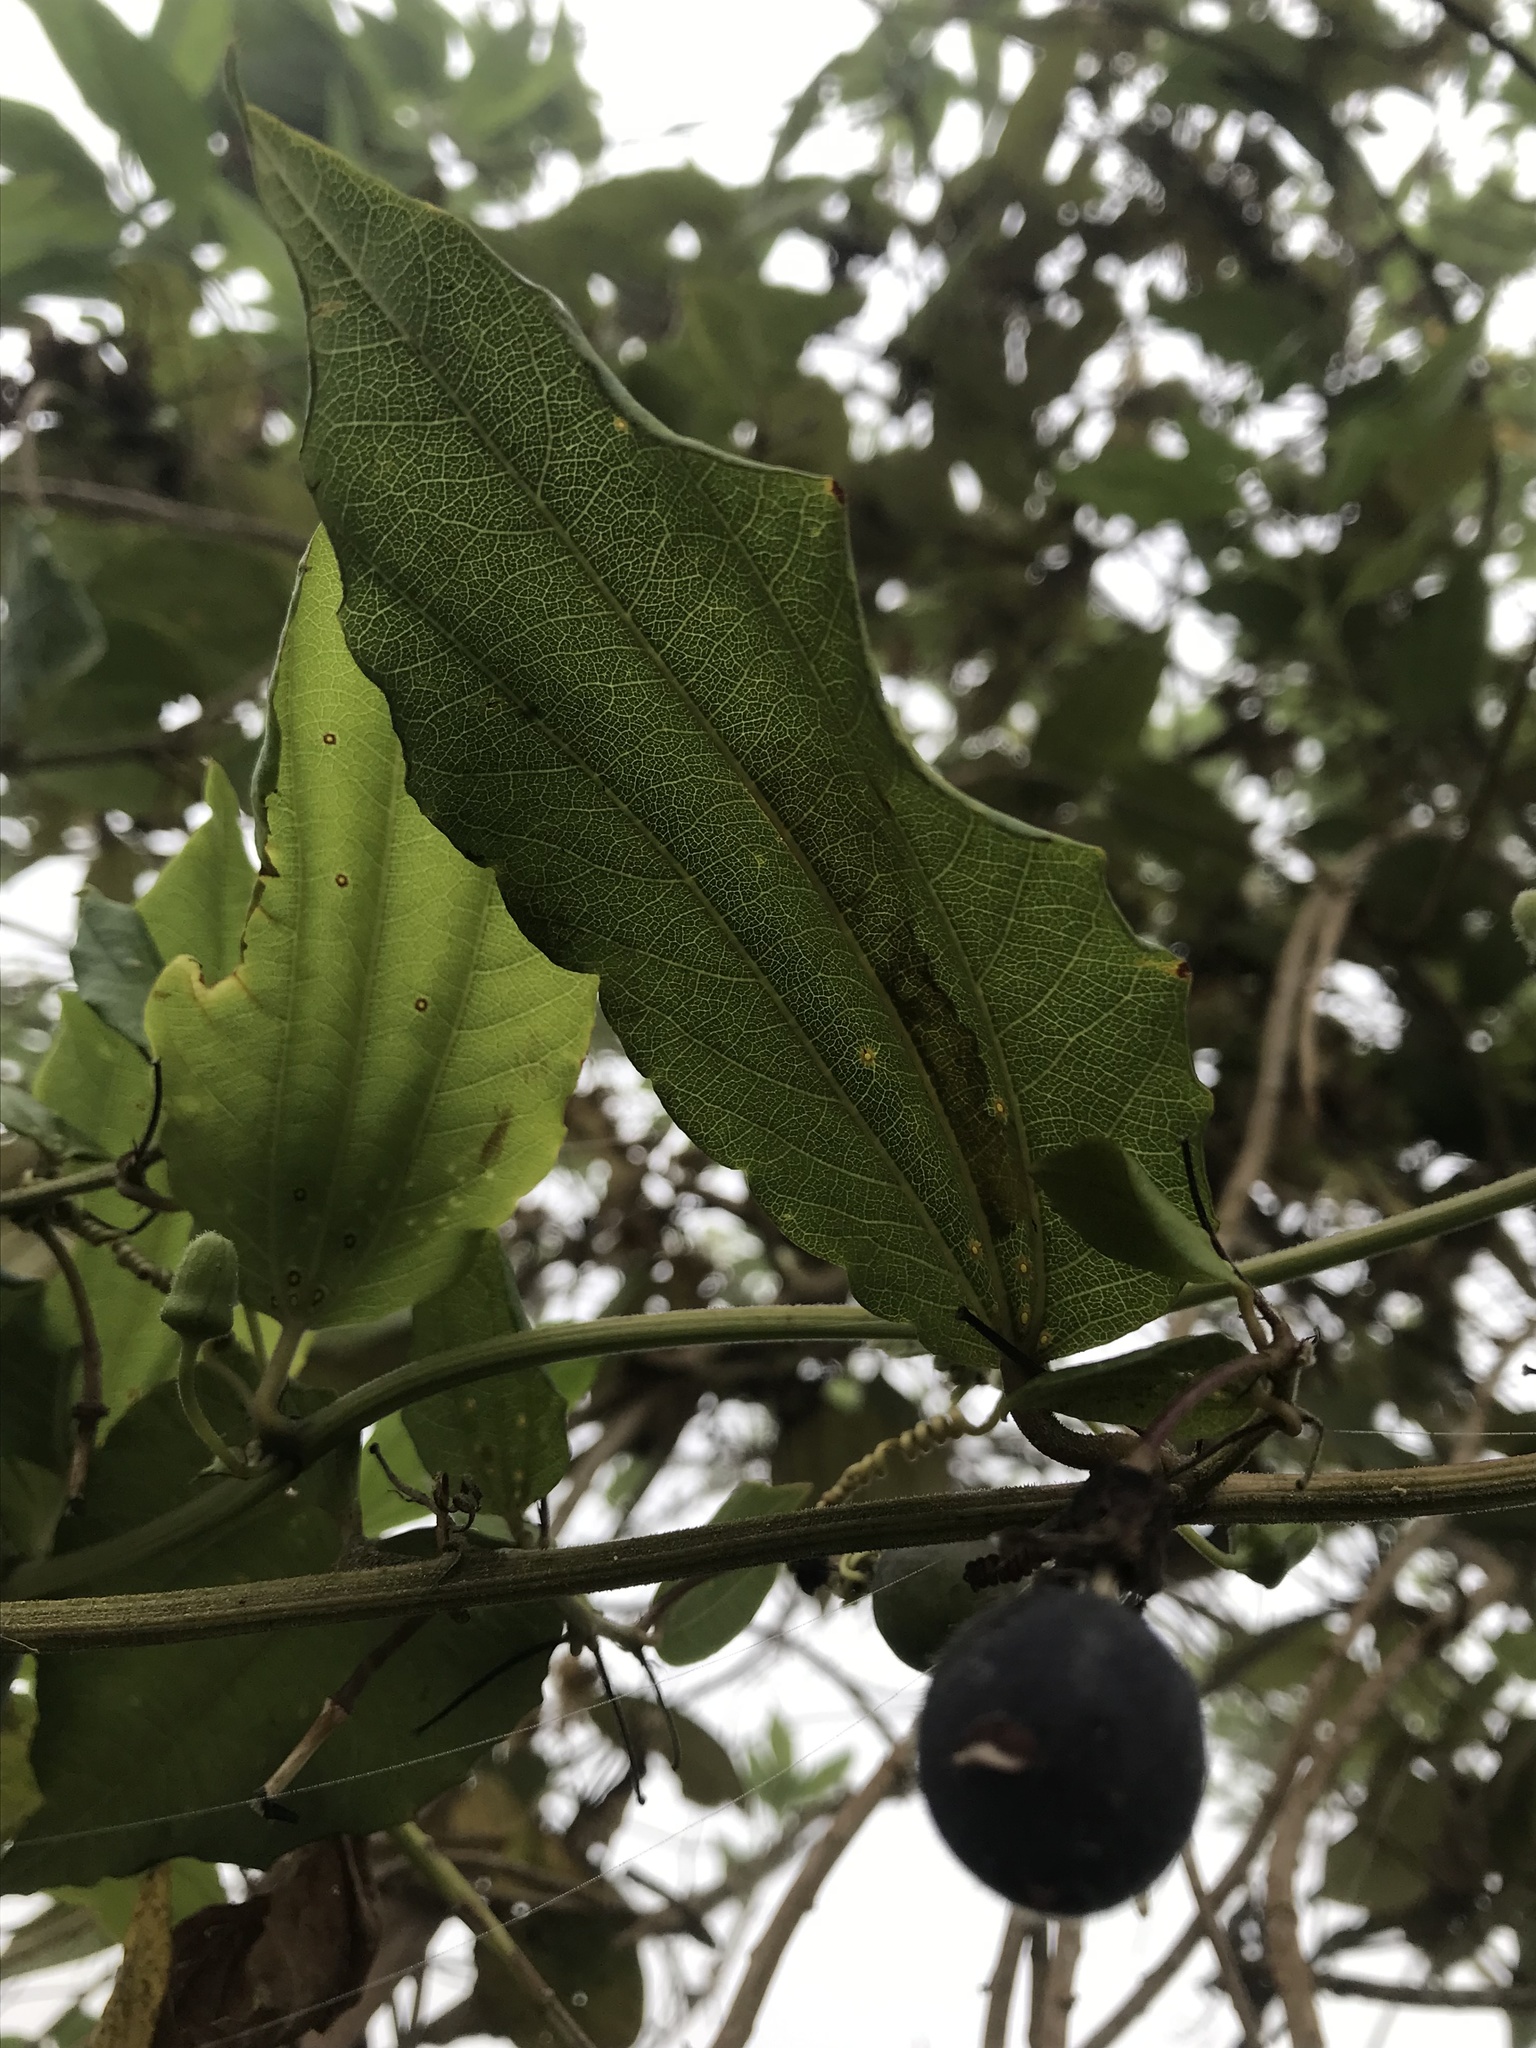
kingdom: Plantae
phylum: Tracheophyta
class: Magnoliopsida
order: Malpighiales
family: Passifloraceae
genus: Passiflora
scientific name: Passiflora cuspidifolia
